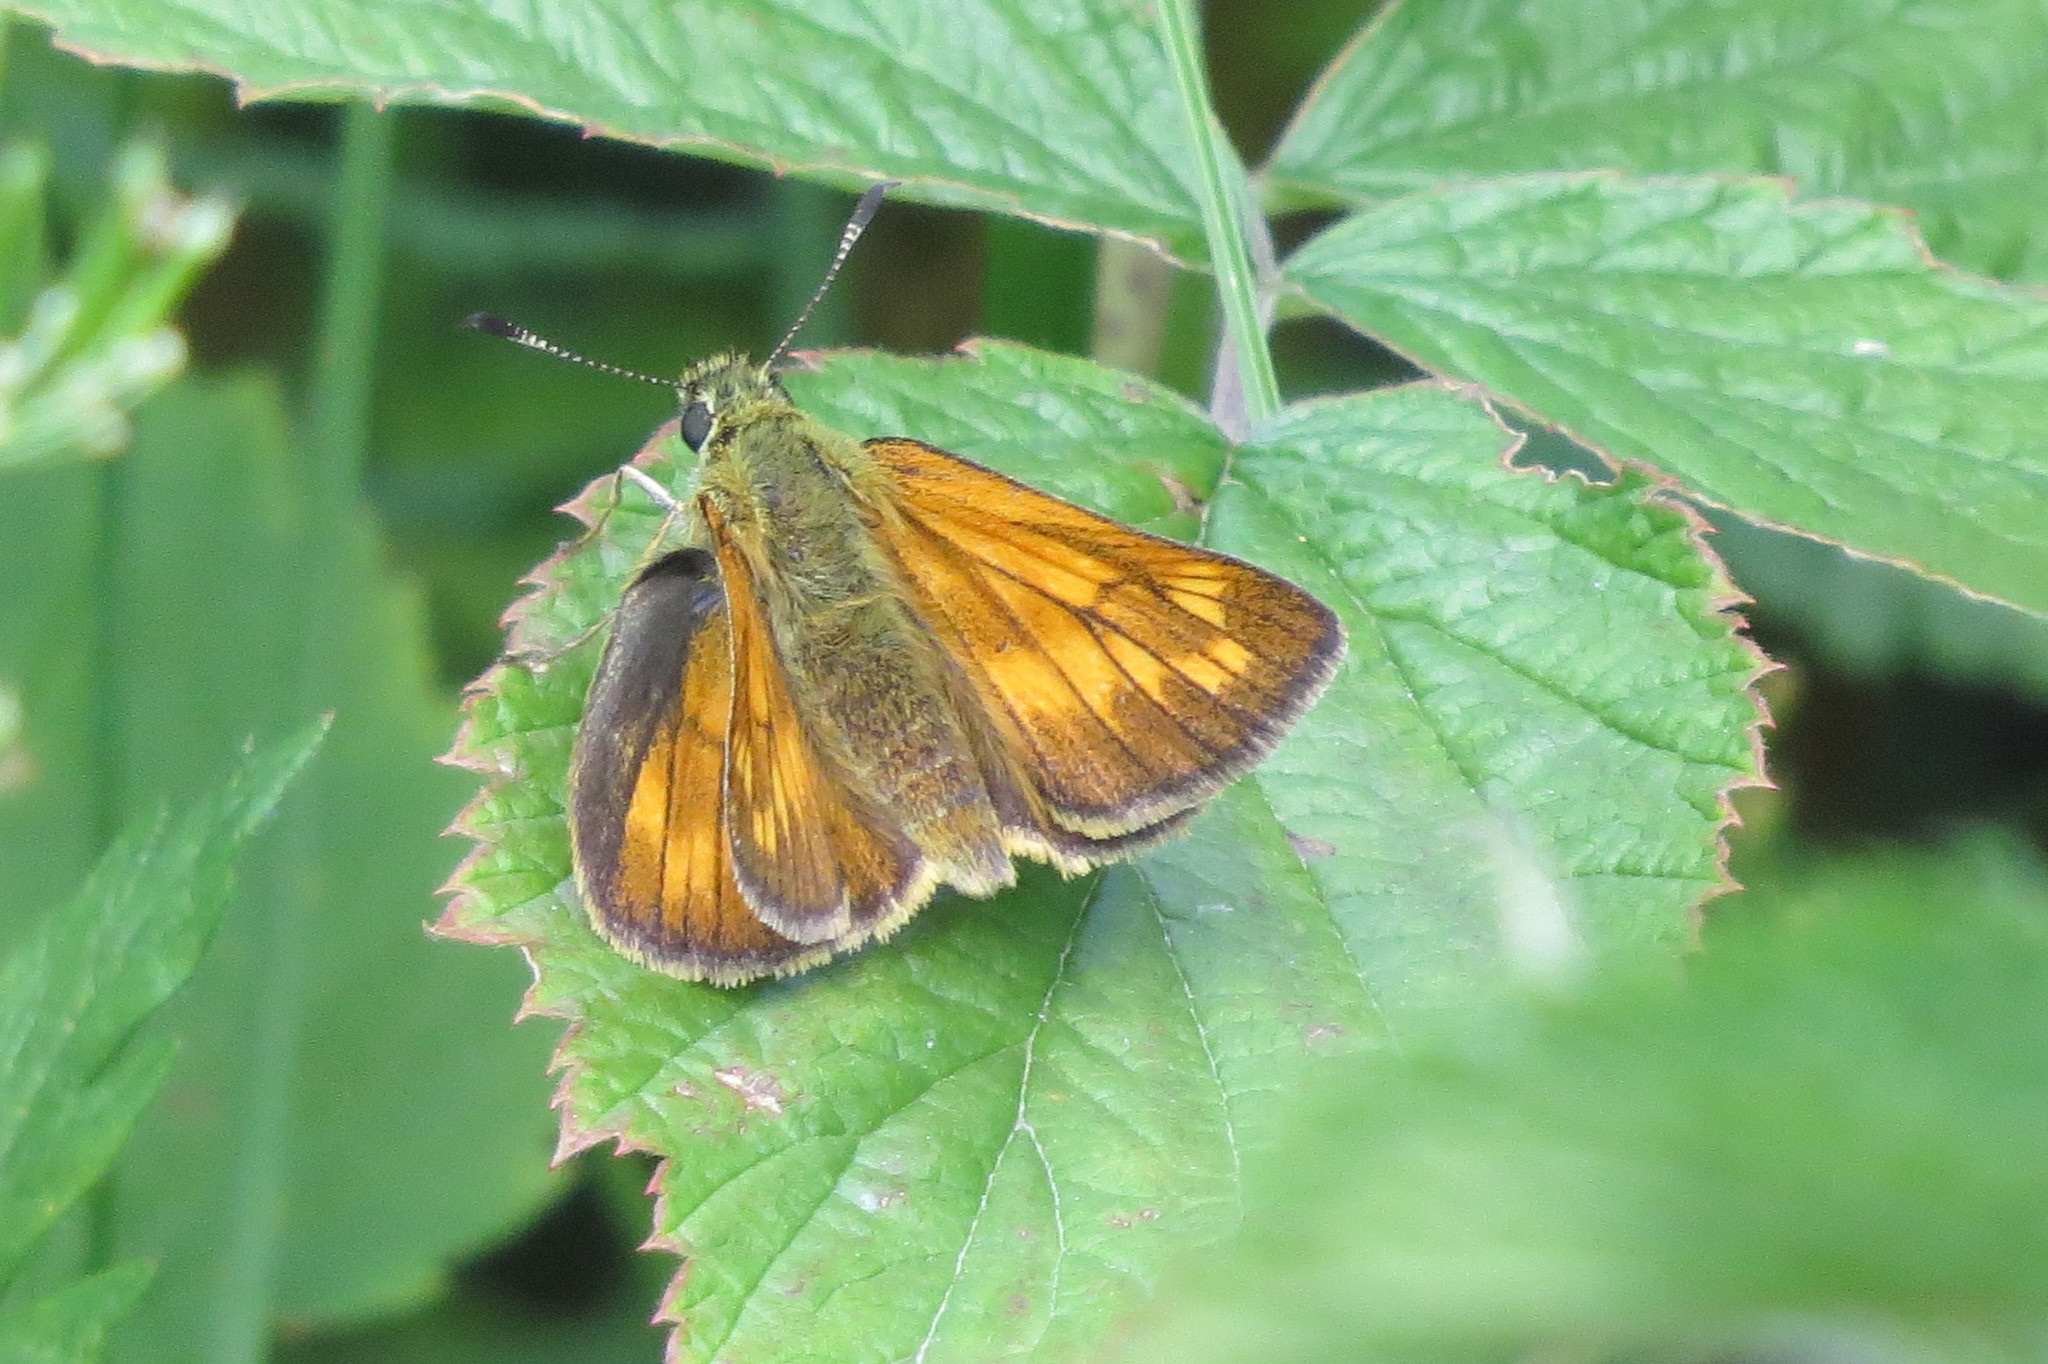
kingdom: Animalia
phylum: Arthropoda
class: Insecta
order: Lepidoptera
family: Hesperiidae
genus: Ochlodes
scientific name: Ochlodes venata
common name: Large skipper
